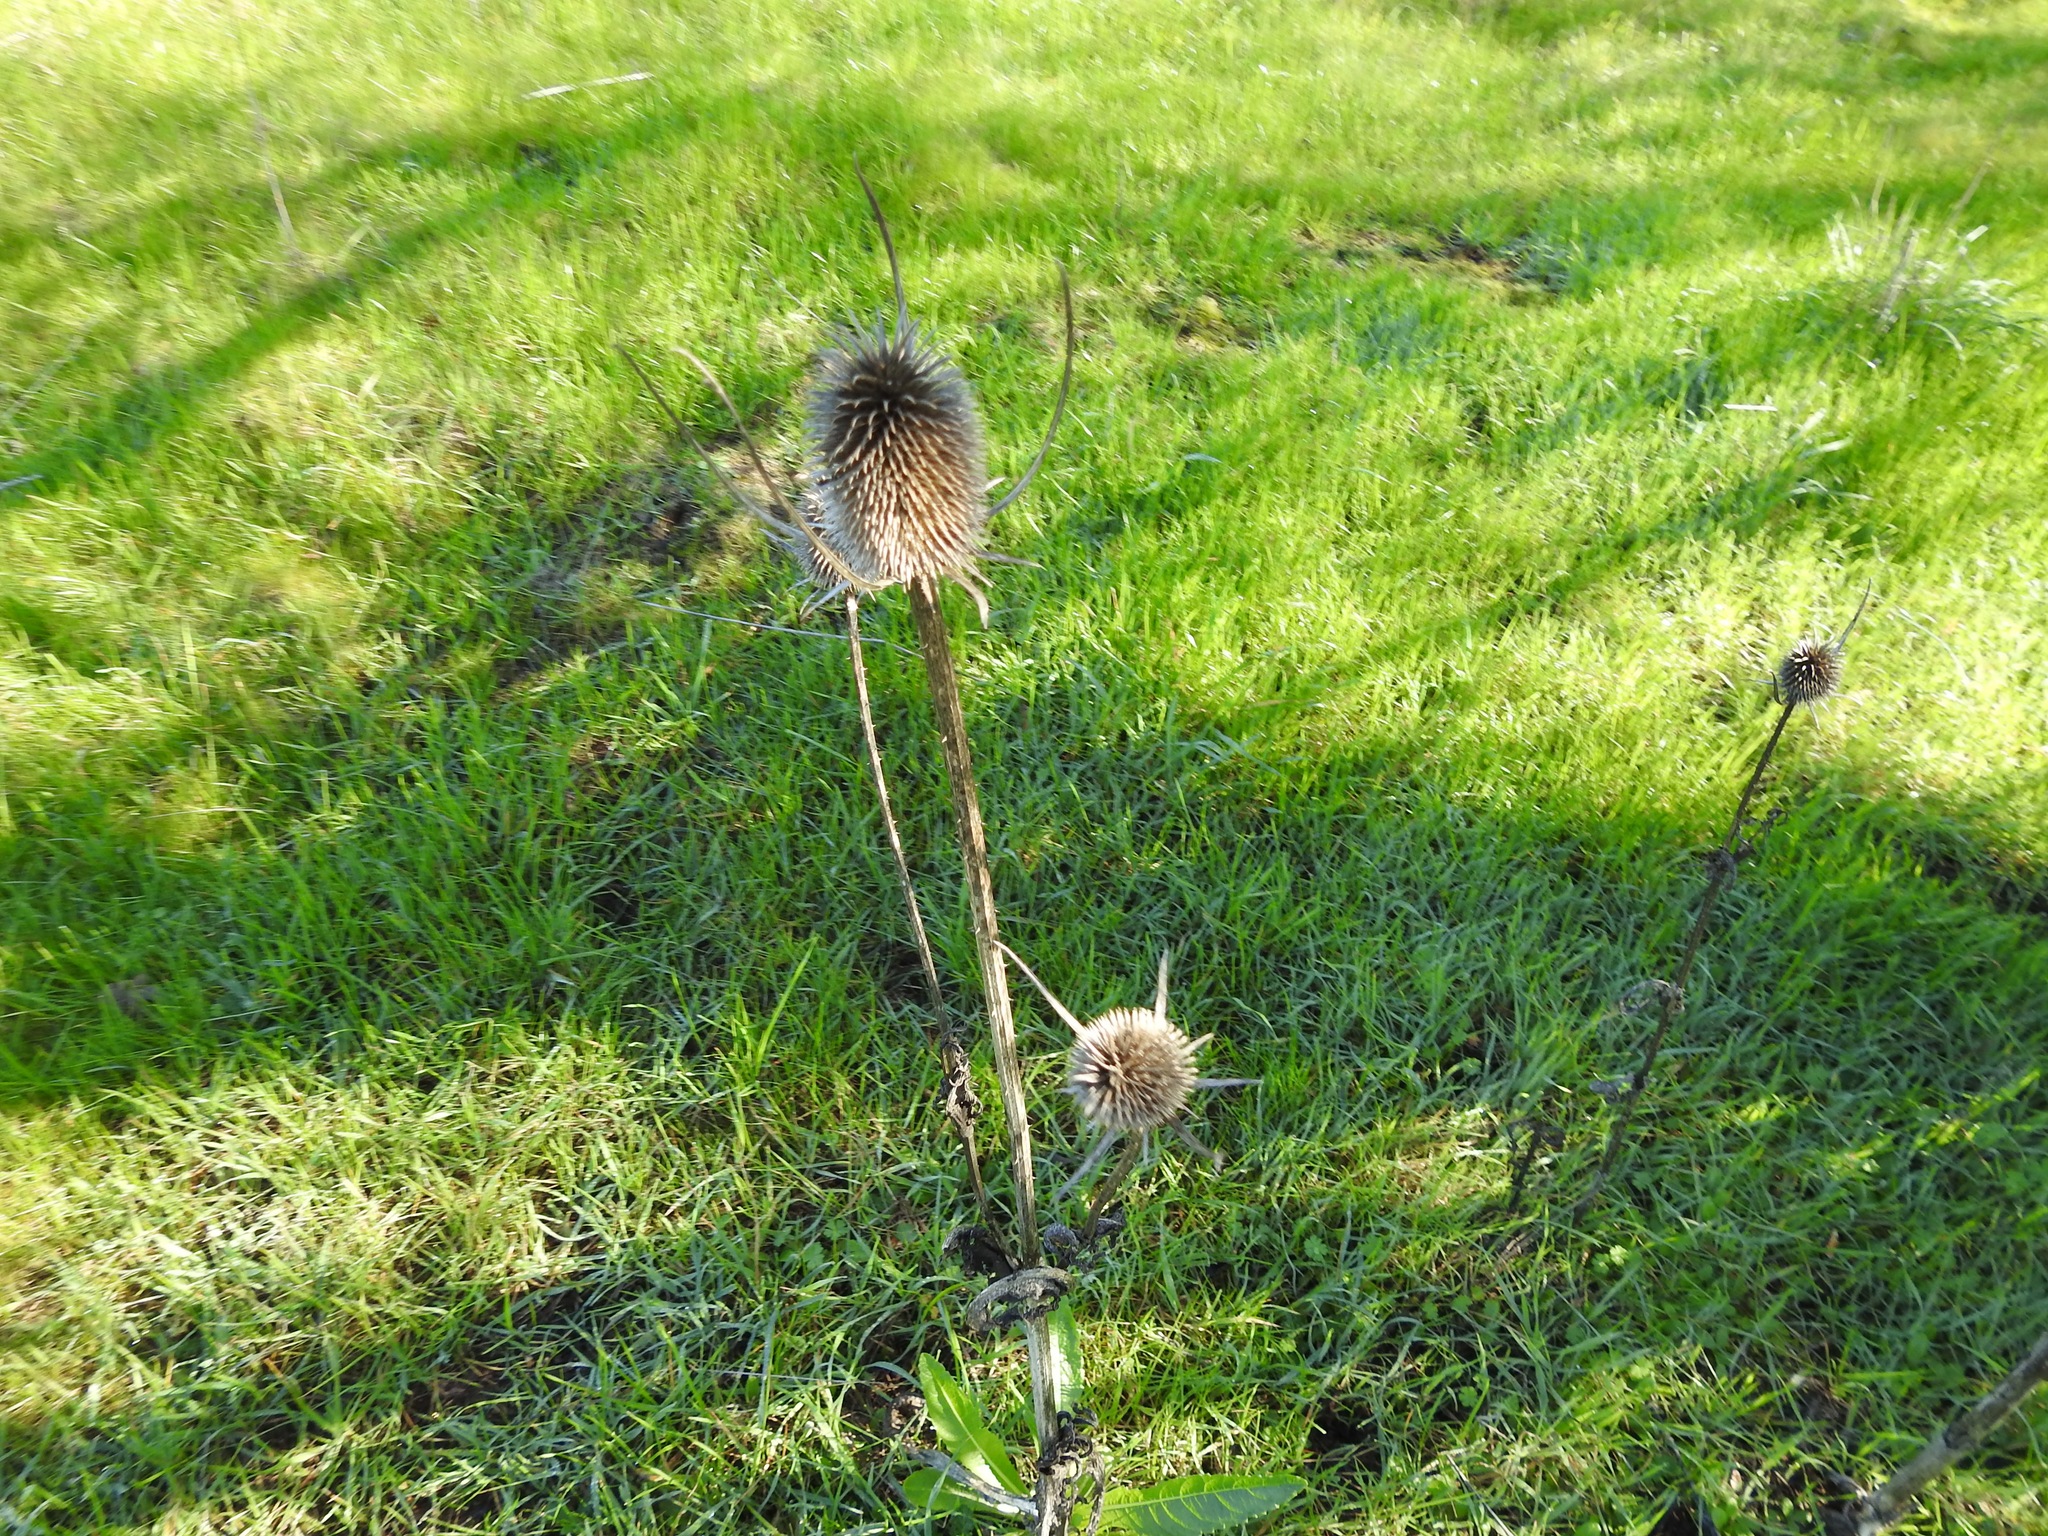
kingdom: Plantae
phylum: Tracheophyta
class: Magnoliopsida
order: Dipsacales
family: Caprifoliaceae
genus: Dipsacus
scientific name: Dipsacus sativus
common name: Fuller's teasel
